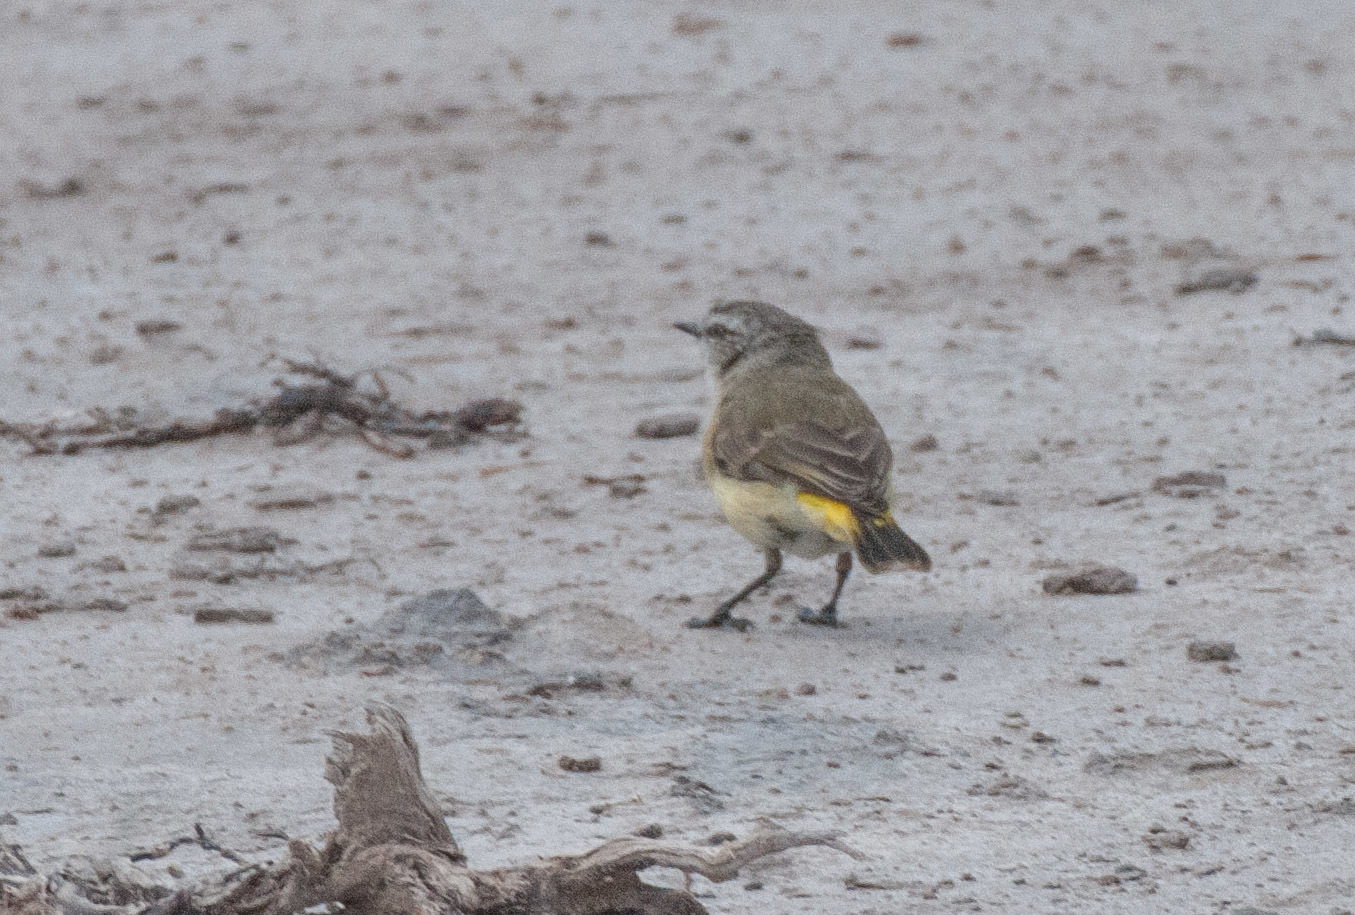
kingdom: Animalia
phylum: Chordata
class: Aves
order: Passeriformes
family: Acanthizidae
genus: Acanthiza
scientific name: Acanthiza chrysorrhoa
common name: Yellow-rumped thornbill
